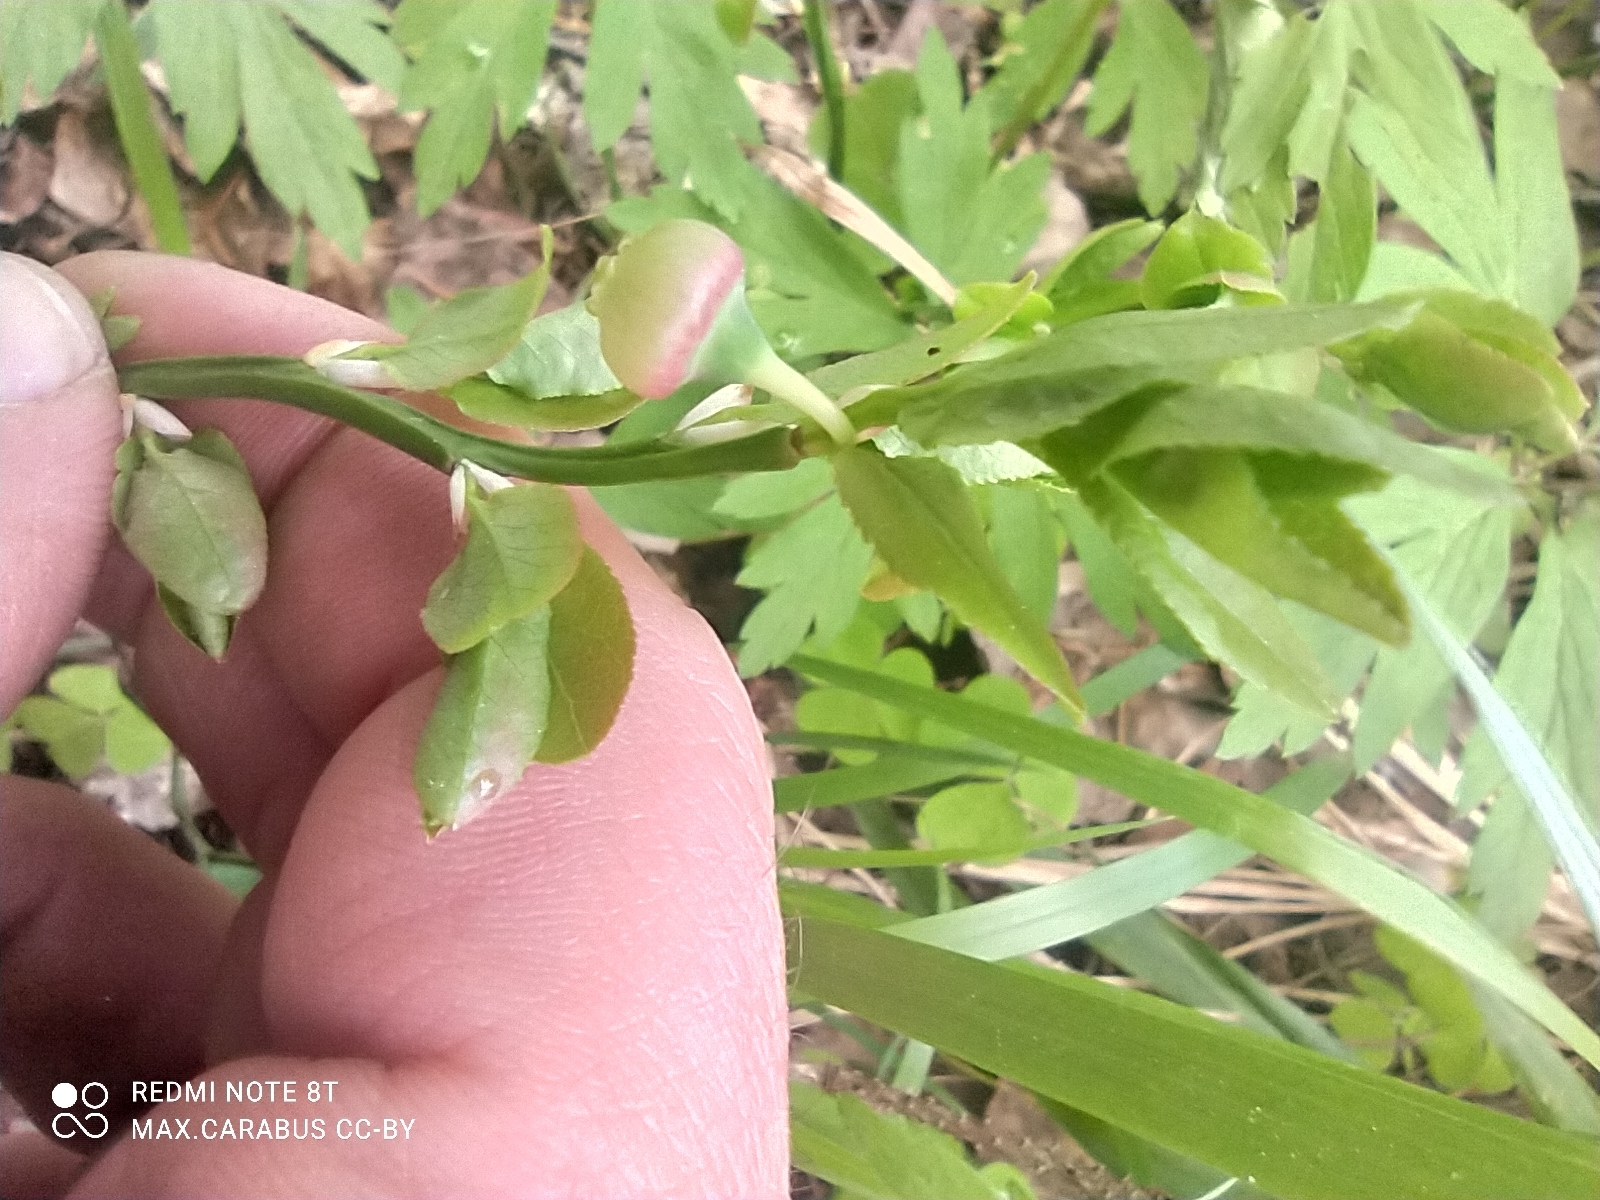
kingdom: Plantae
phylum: Tracheophyta
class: Magnoliopsida
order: Ericales
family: Ericaceae
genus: Vaccinium
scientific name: Vaccinium myrtillus
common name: Bilberry
